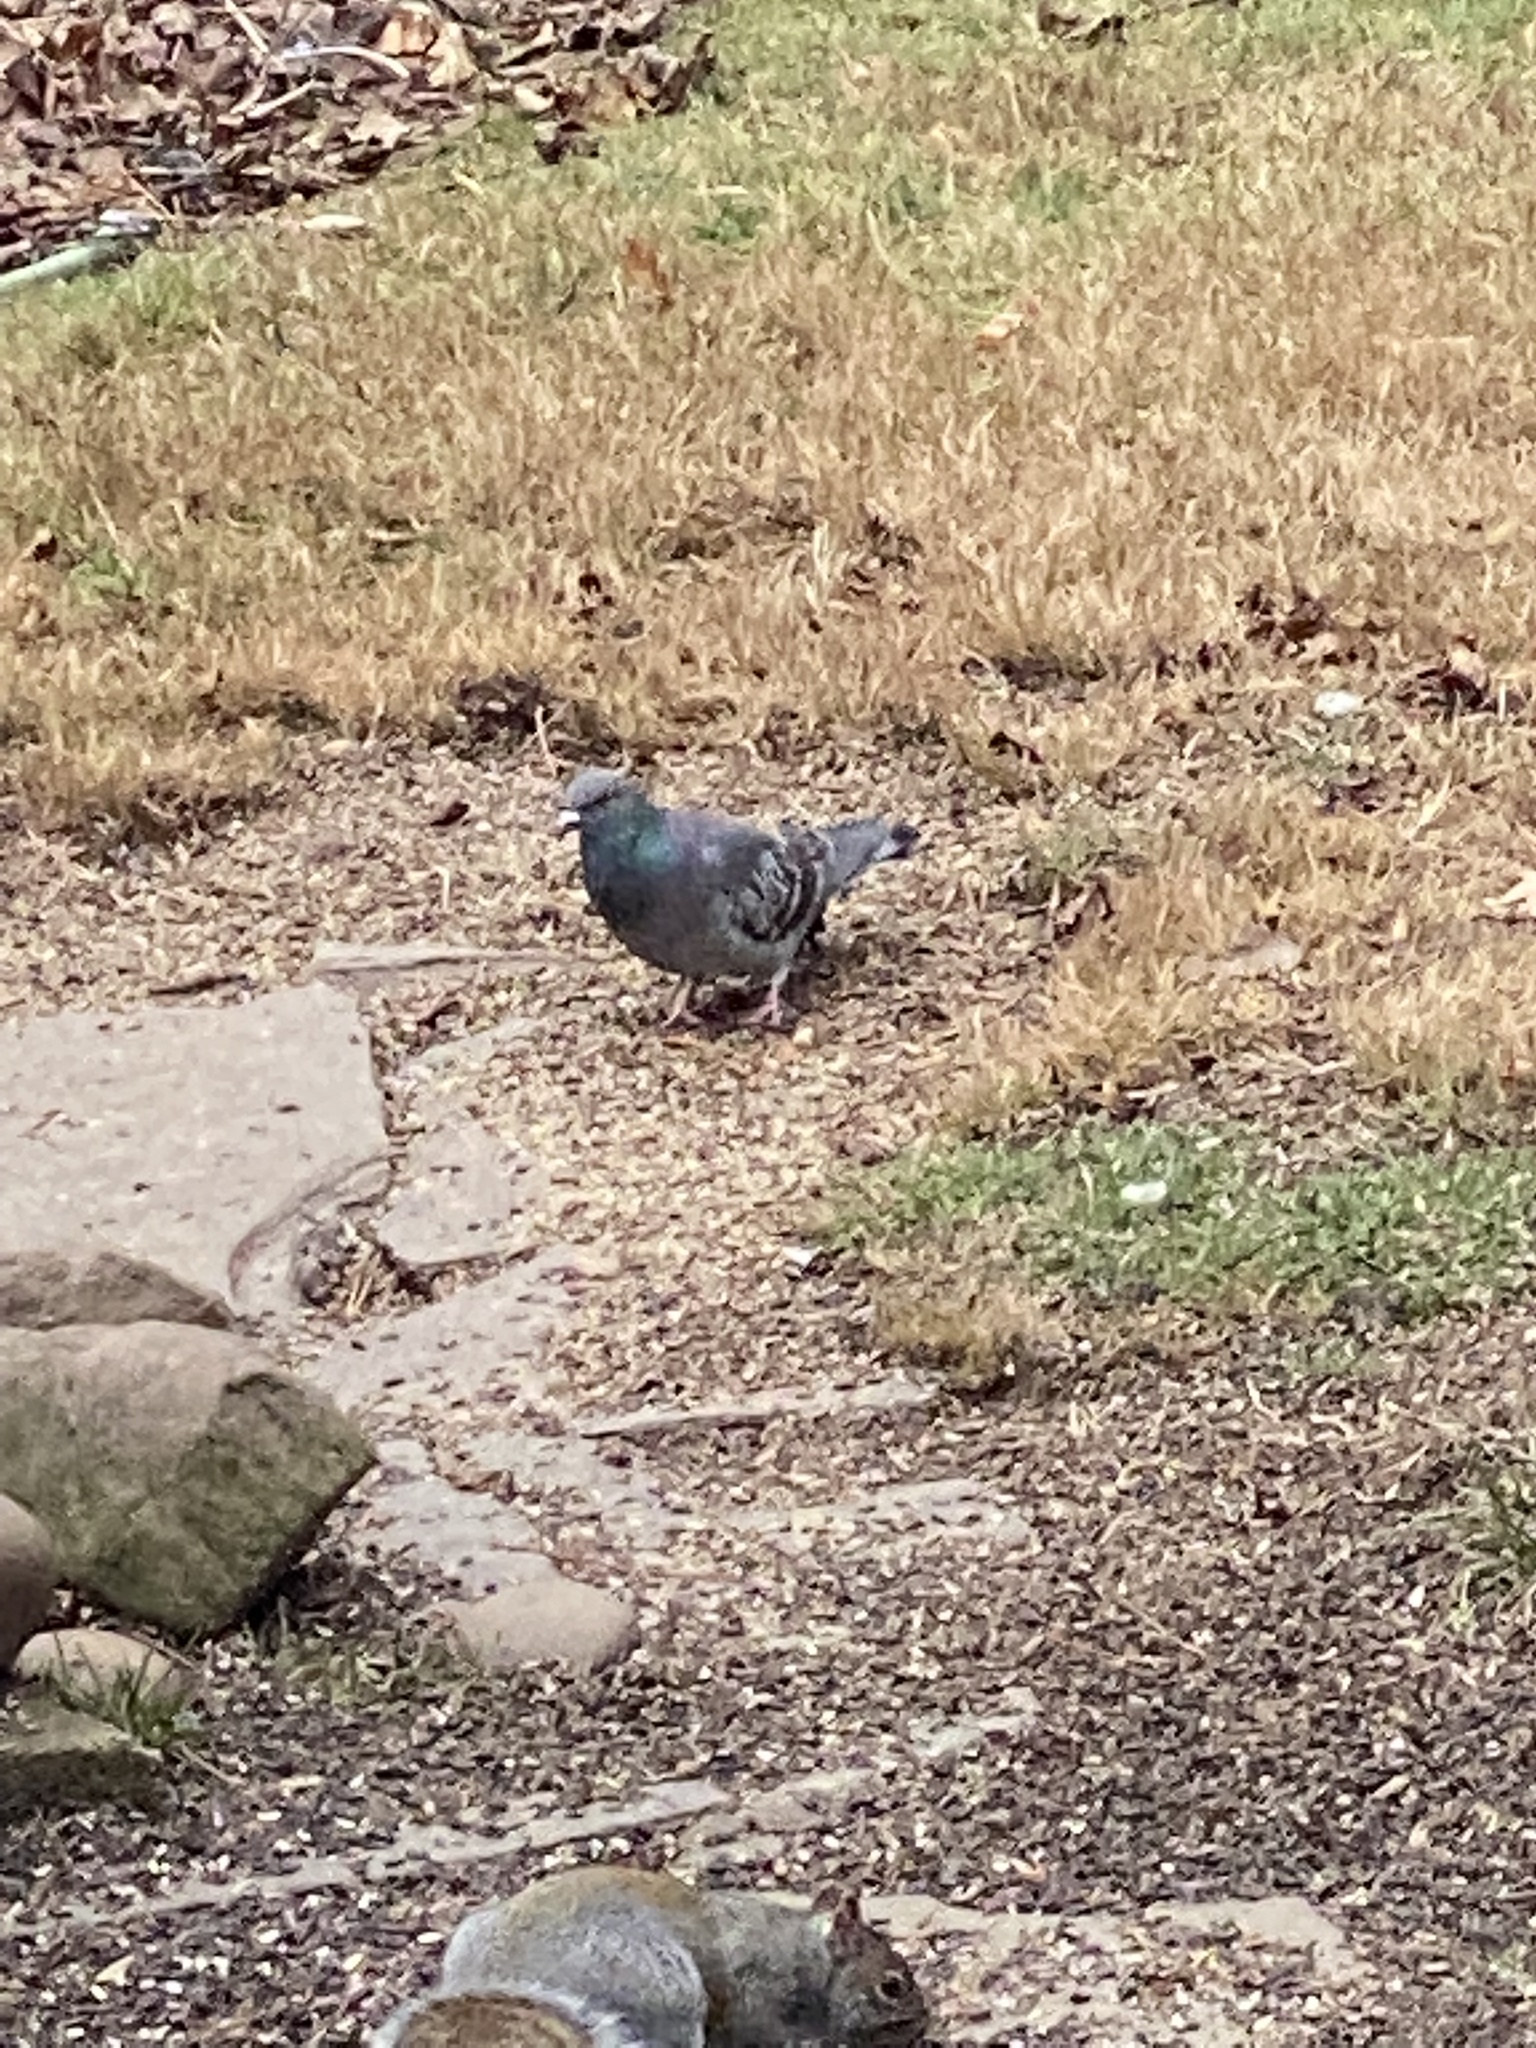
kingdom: Animalia
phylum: Chordata
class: Aves
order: Columbiformes
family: Columbidae
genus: Columba
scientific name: Columba livia
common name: Rock pigeon
